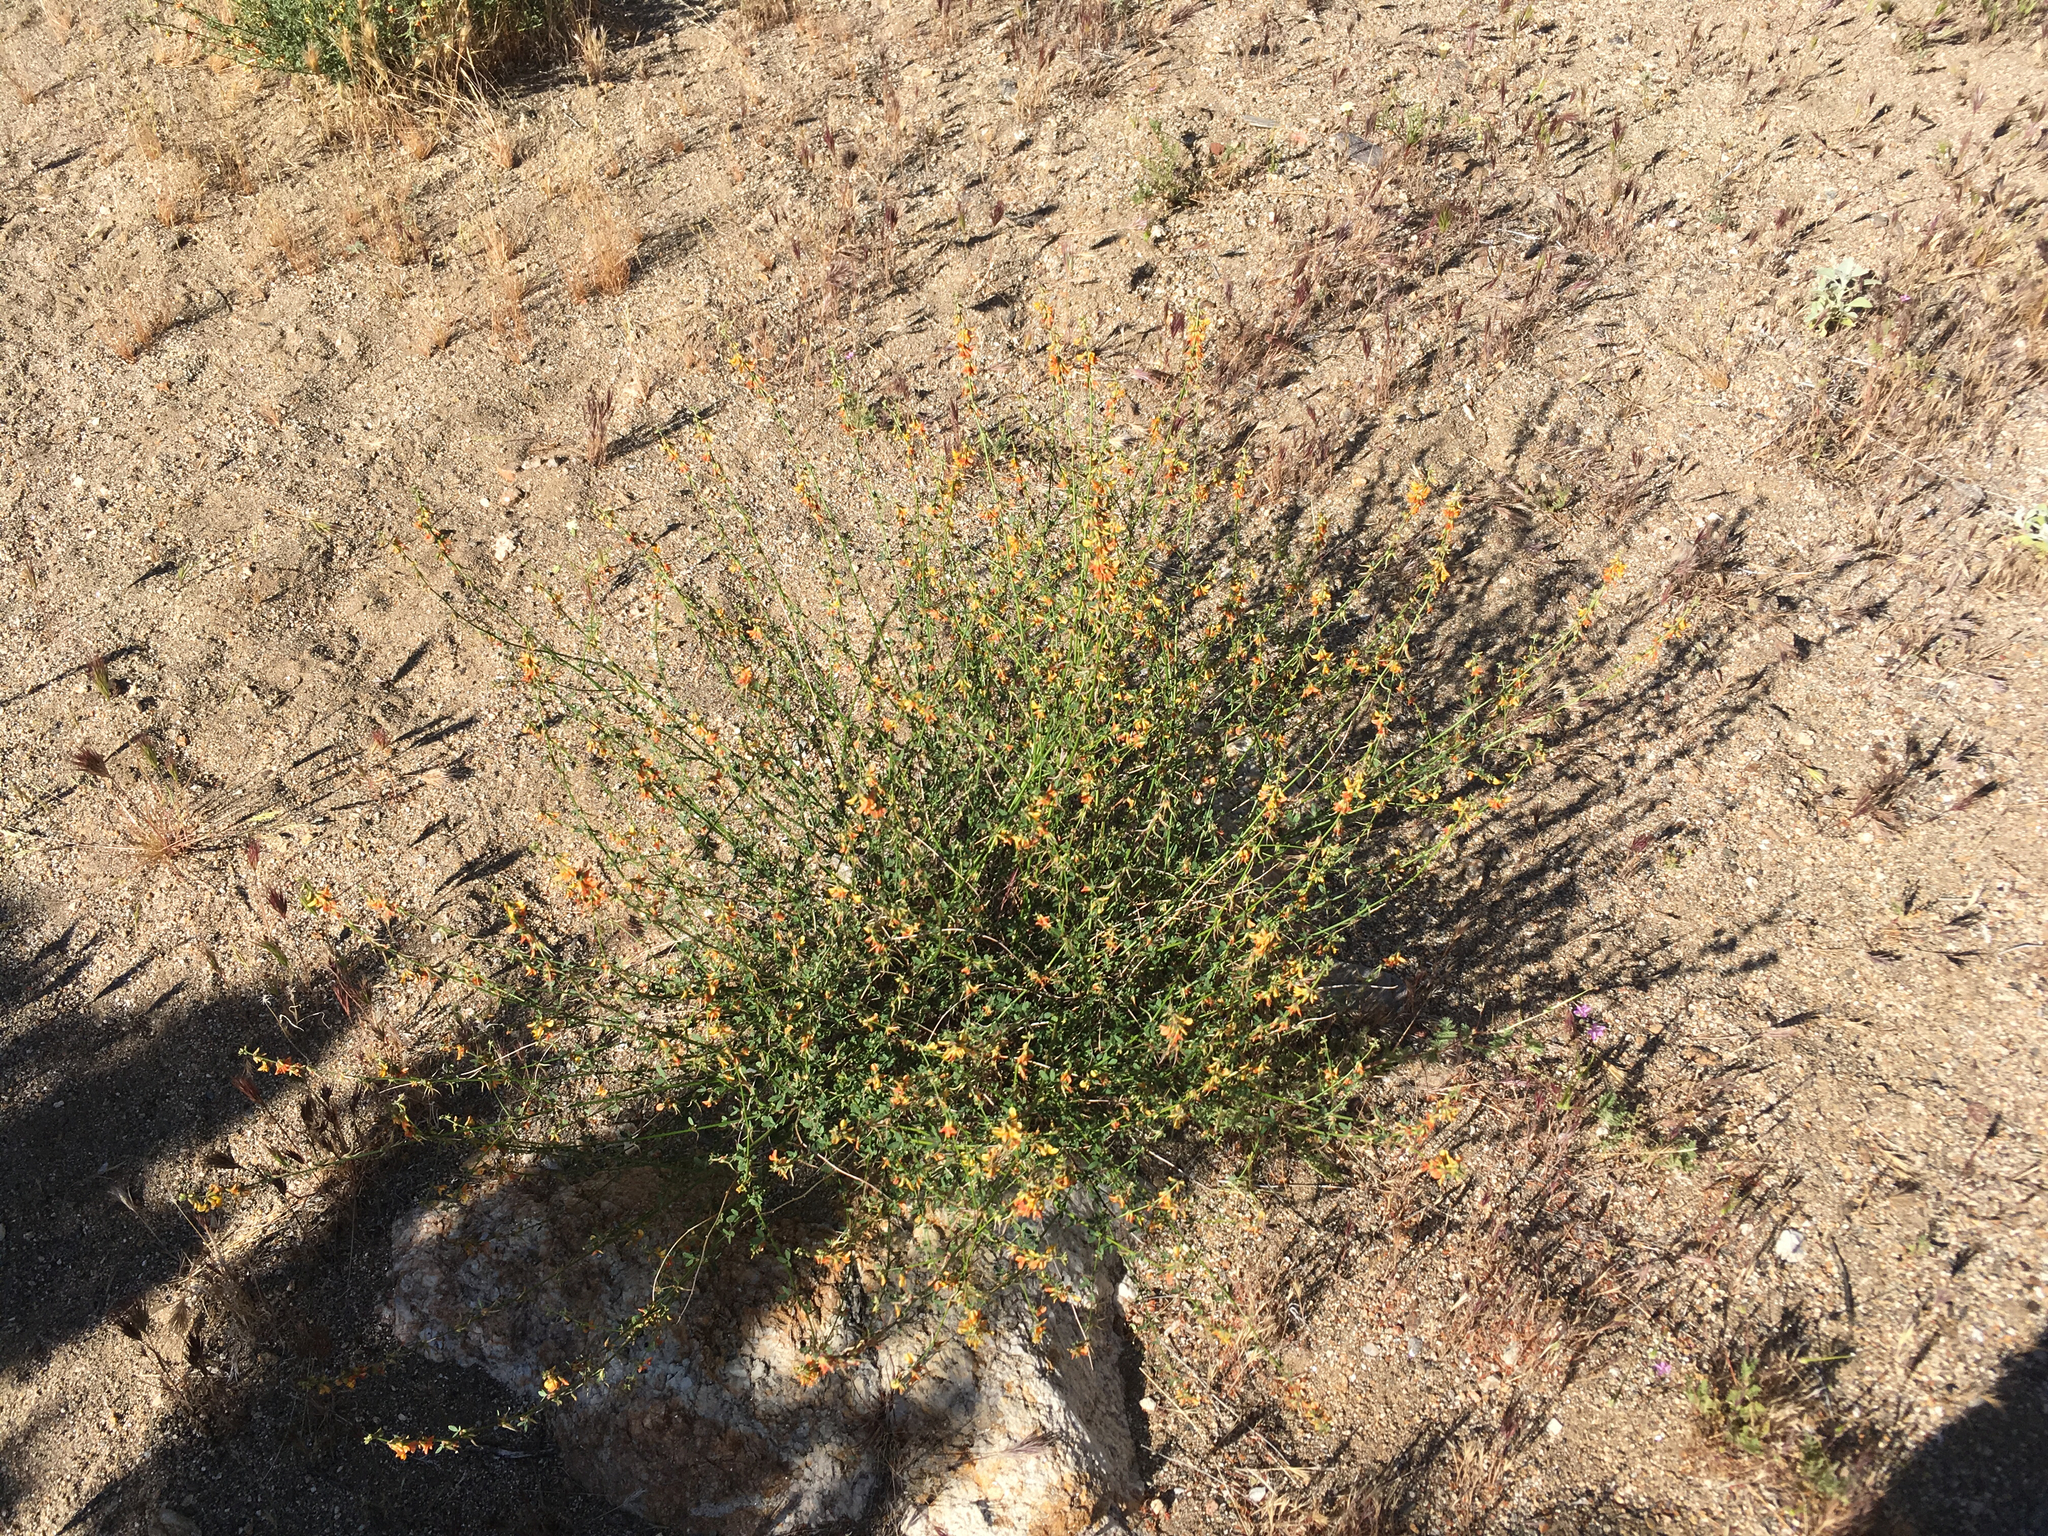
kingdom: Plantae
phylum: Tracheophyta
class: Magnoliopsida
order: Fabales
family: Fabaceae
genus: Acmispon
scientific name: Acmispon glaber
